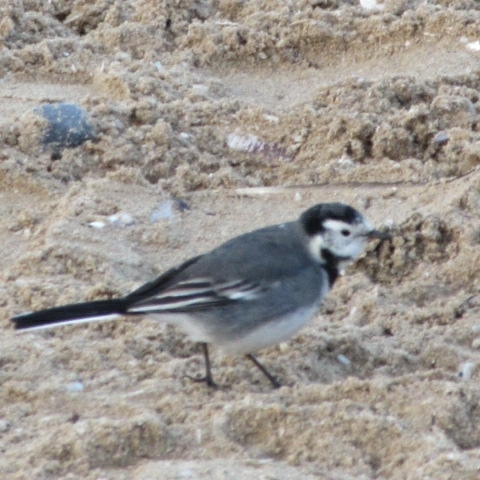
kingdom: Animalia
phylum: Chordata
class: Aves
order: Passeriformes
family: Motacillidae
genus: Motacilla
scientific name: Motacilla alba
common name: White wagtail
